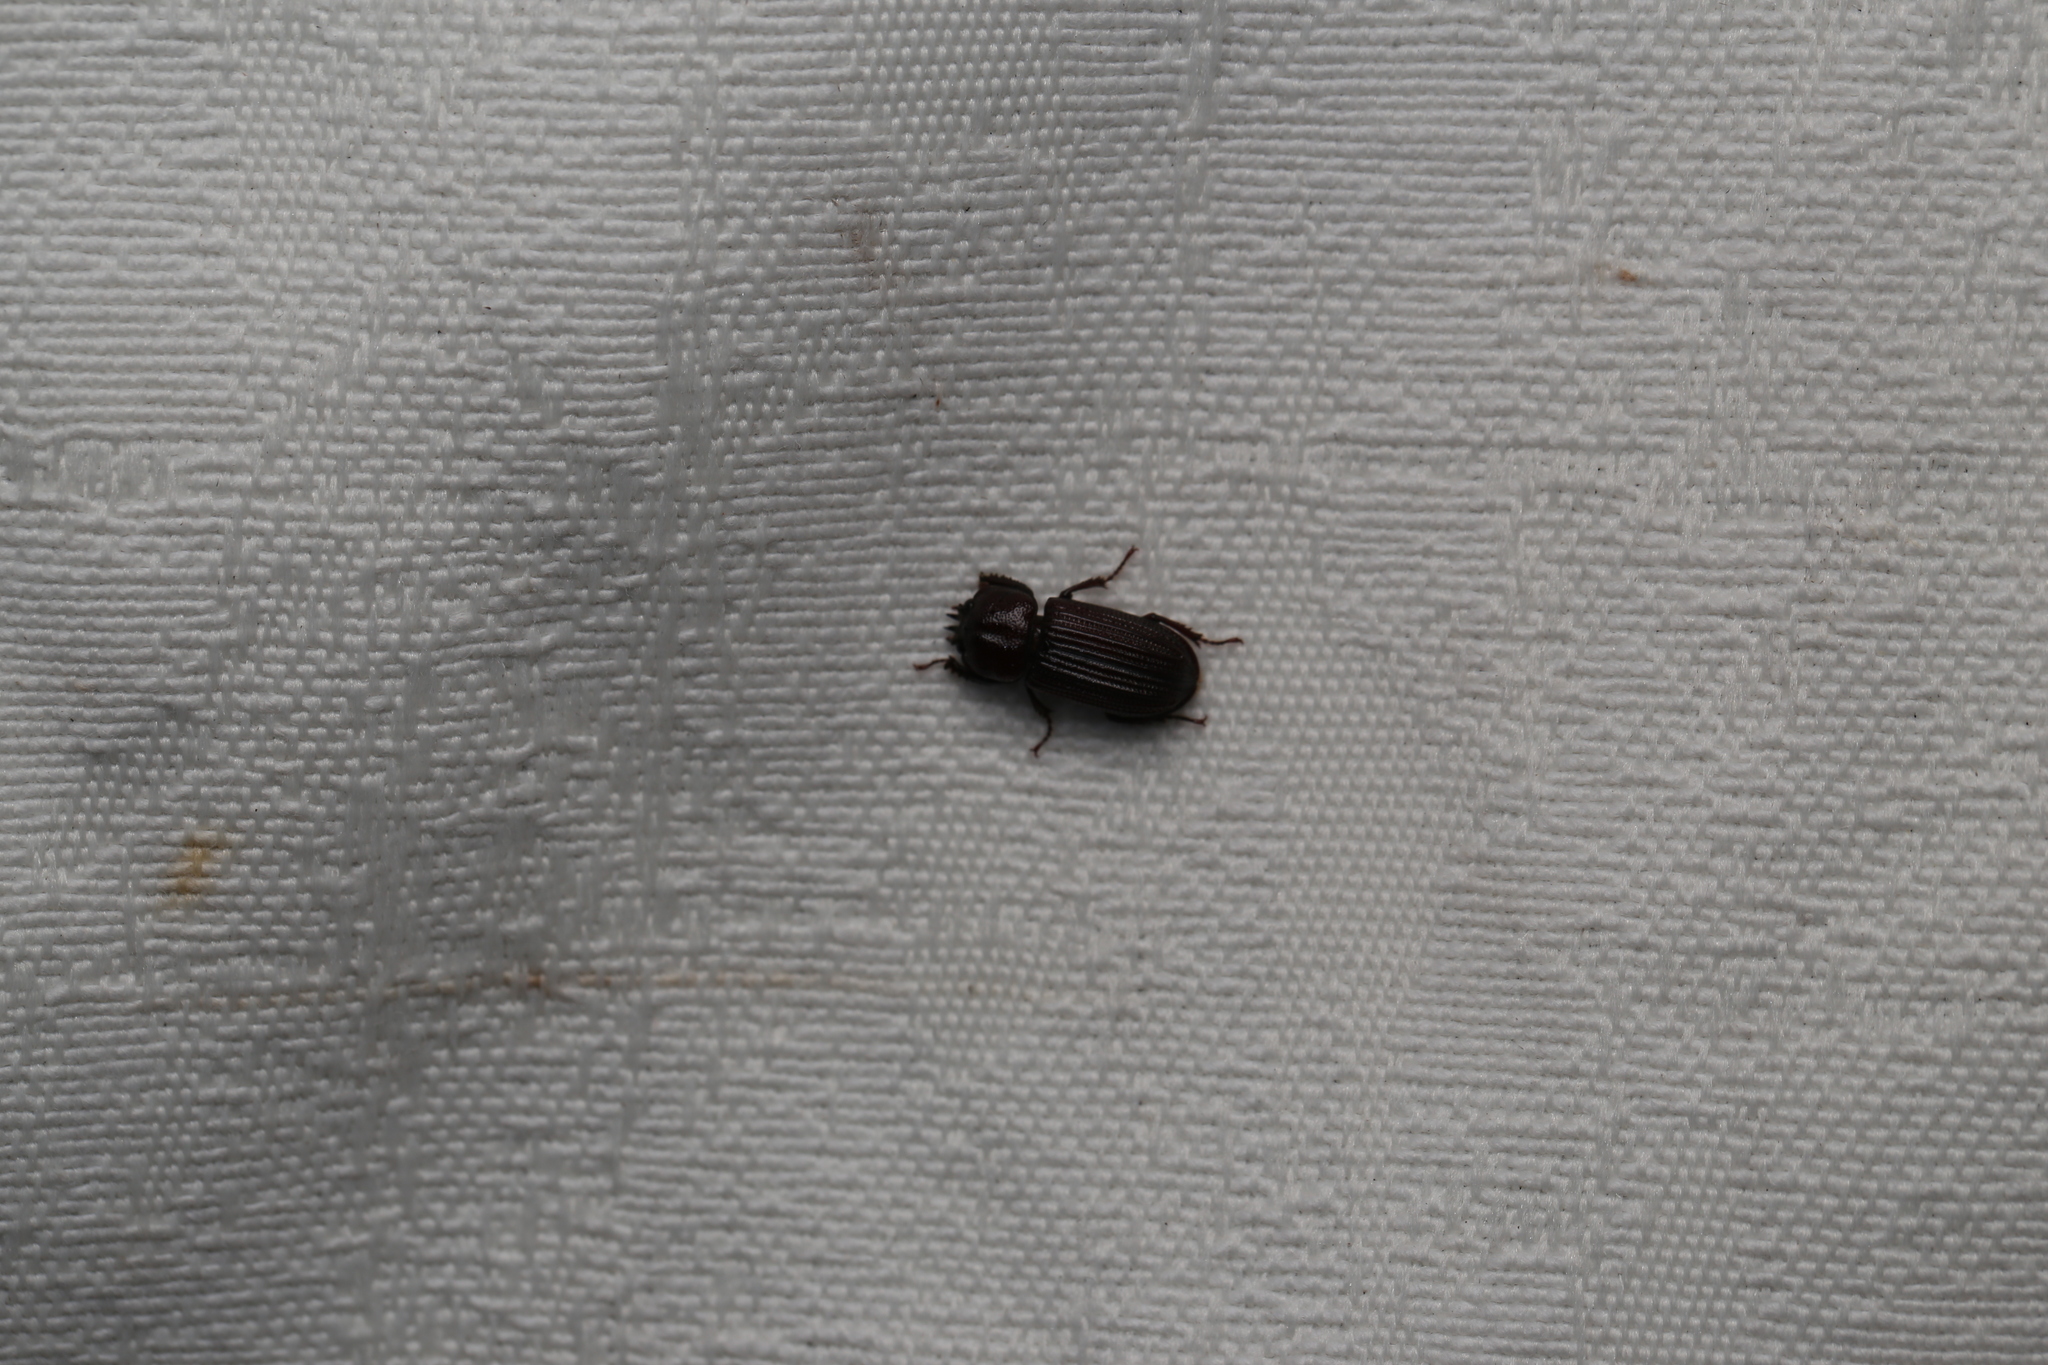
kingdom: Animalia
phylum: Arthropoda
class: Insecta
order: Coleoptera
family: Lucanidae
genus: Syndesus
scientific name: Syndesus cornutus
